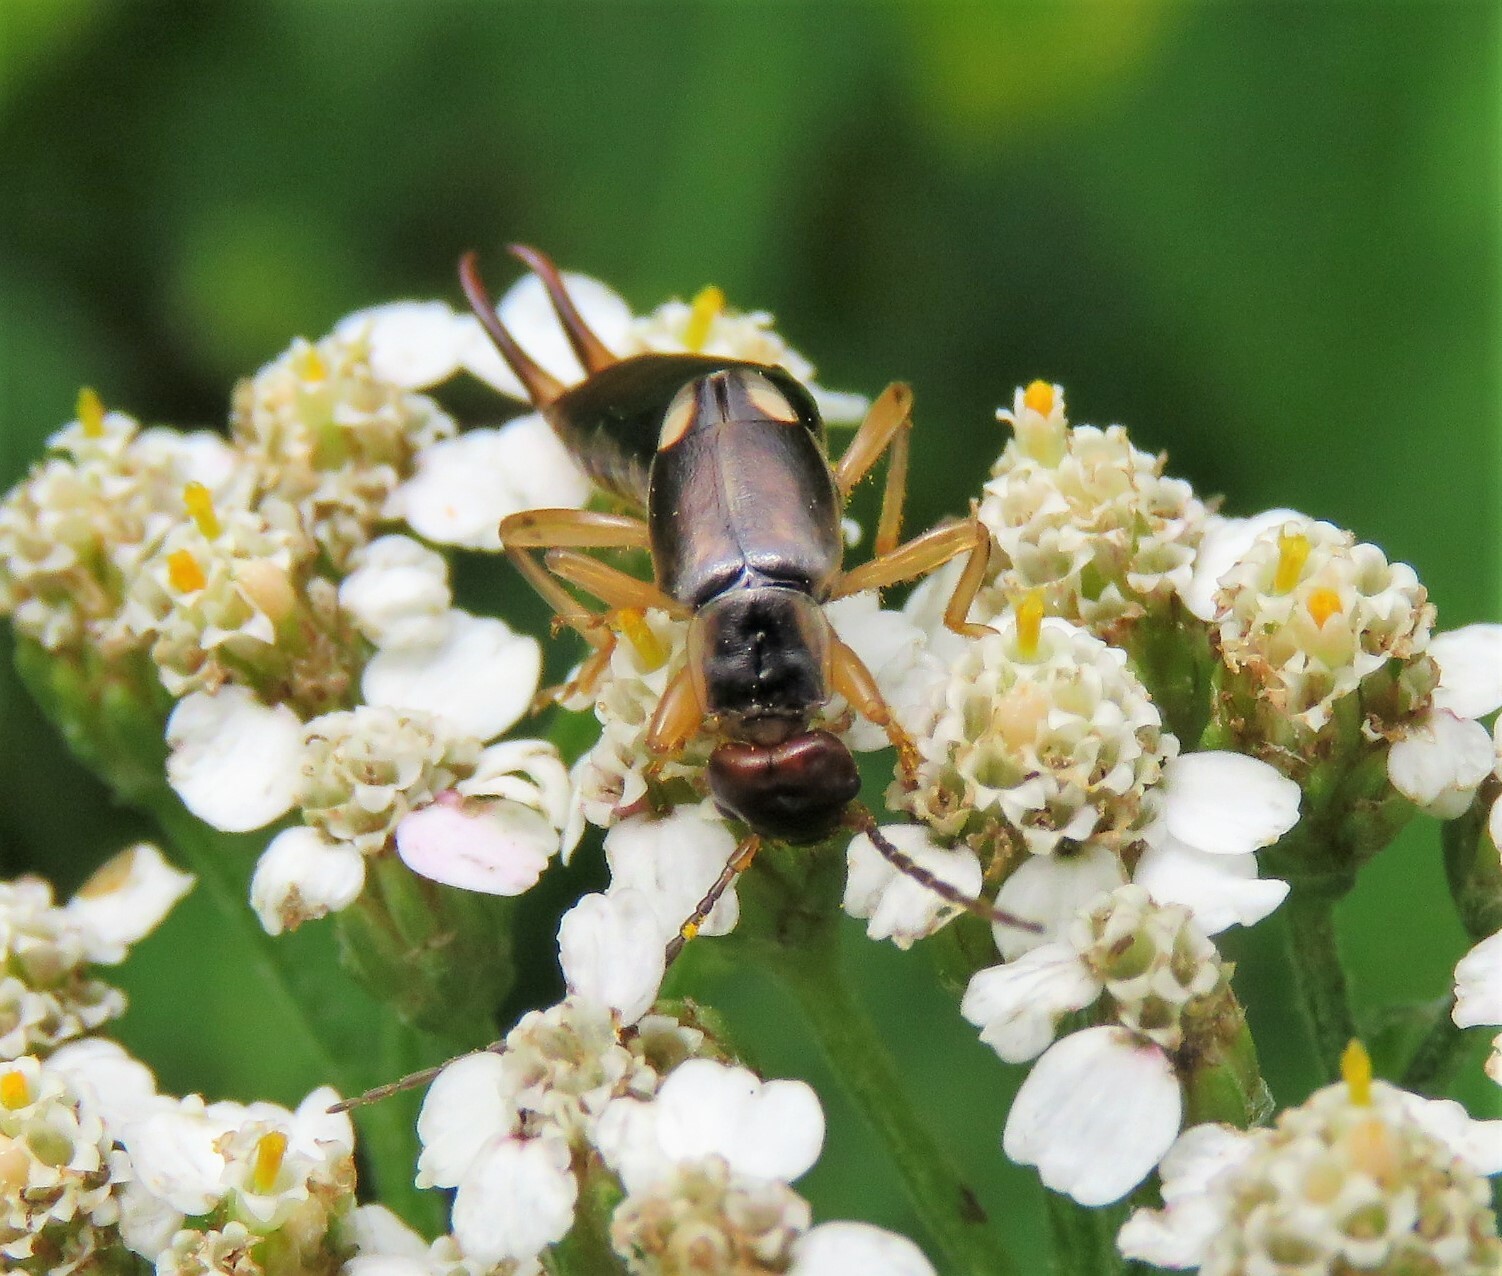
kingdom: Animalia
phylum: Arthropoda
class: Insecta
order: Dermaptera
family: Forficulidae
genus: Forficula
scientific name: Forficula
